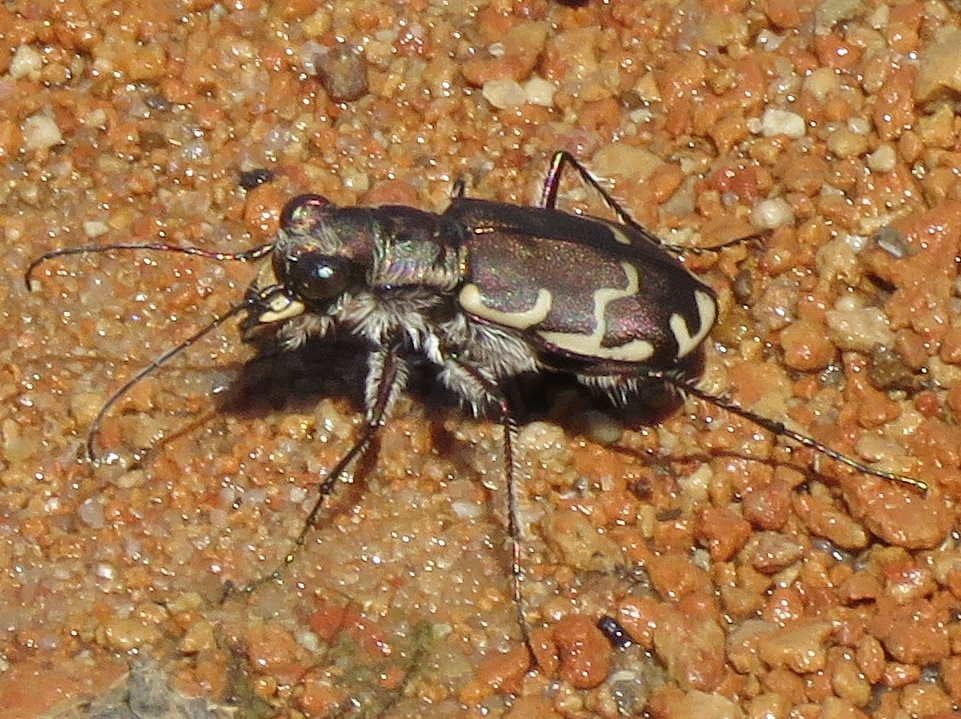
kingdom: Animalia
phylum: Arthropoda
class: Insecta
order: Coleoptera
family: Carabidae
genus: Cicindela
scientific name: Cicindela repanda
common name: Bronzed tiger beetle
